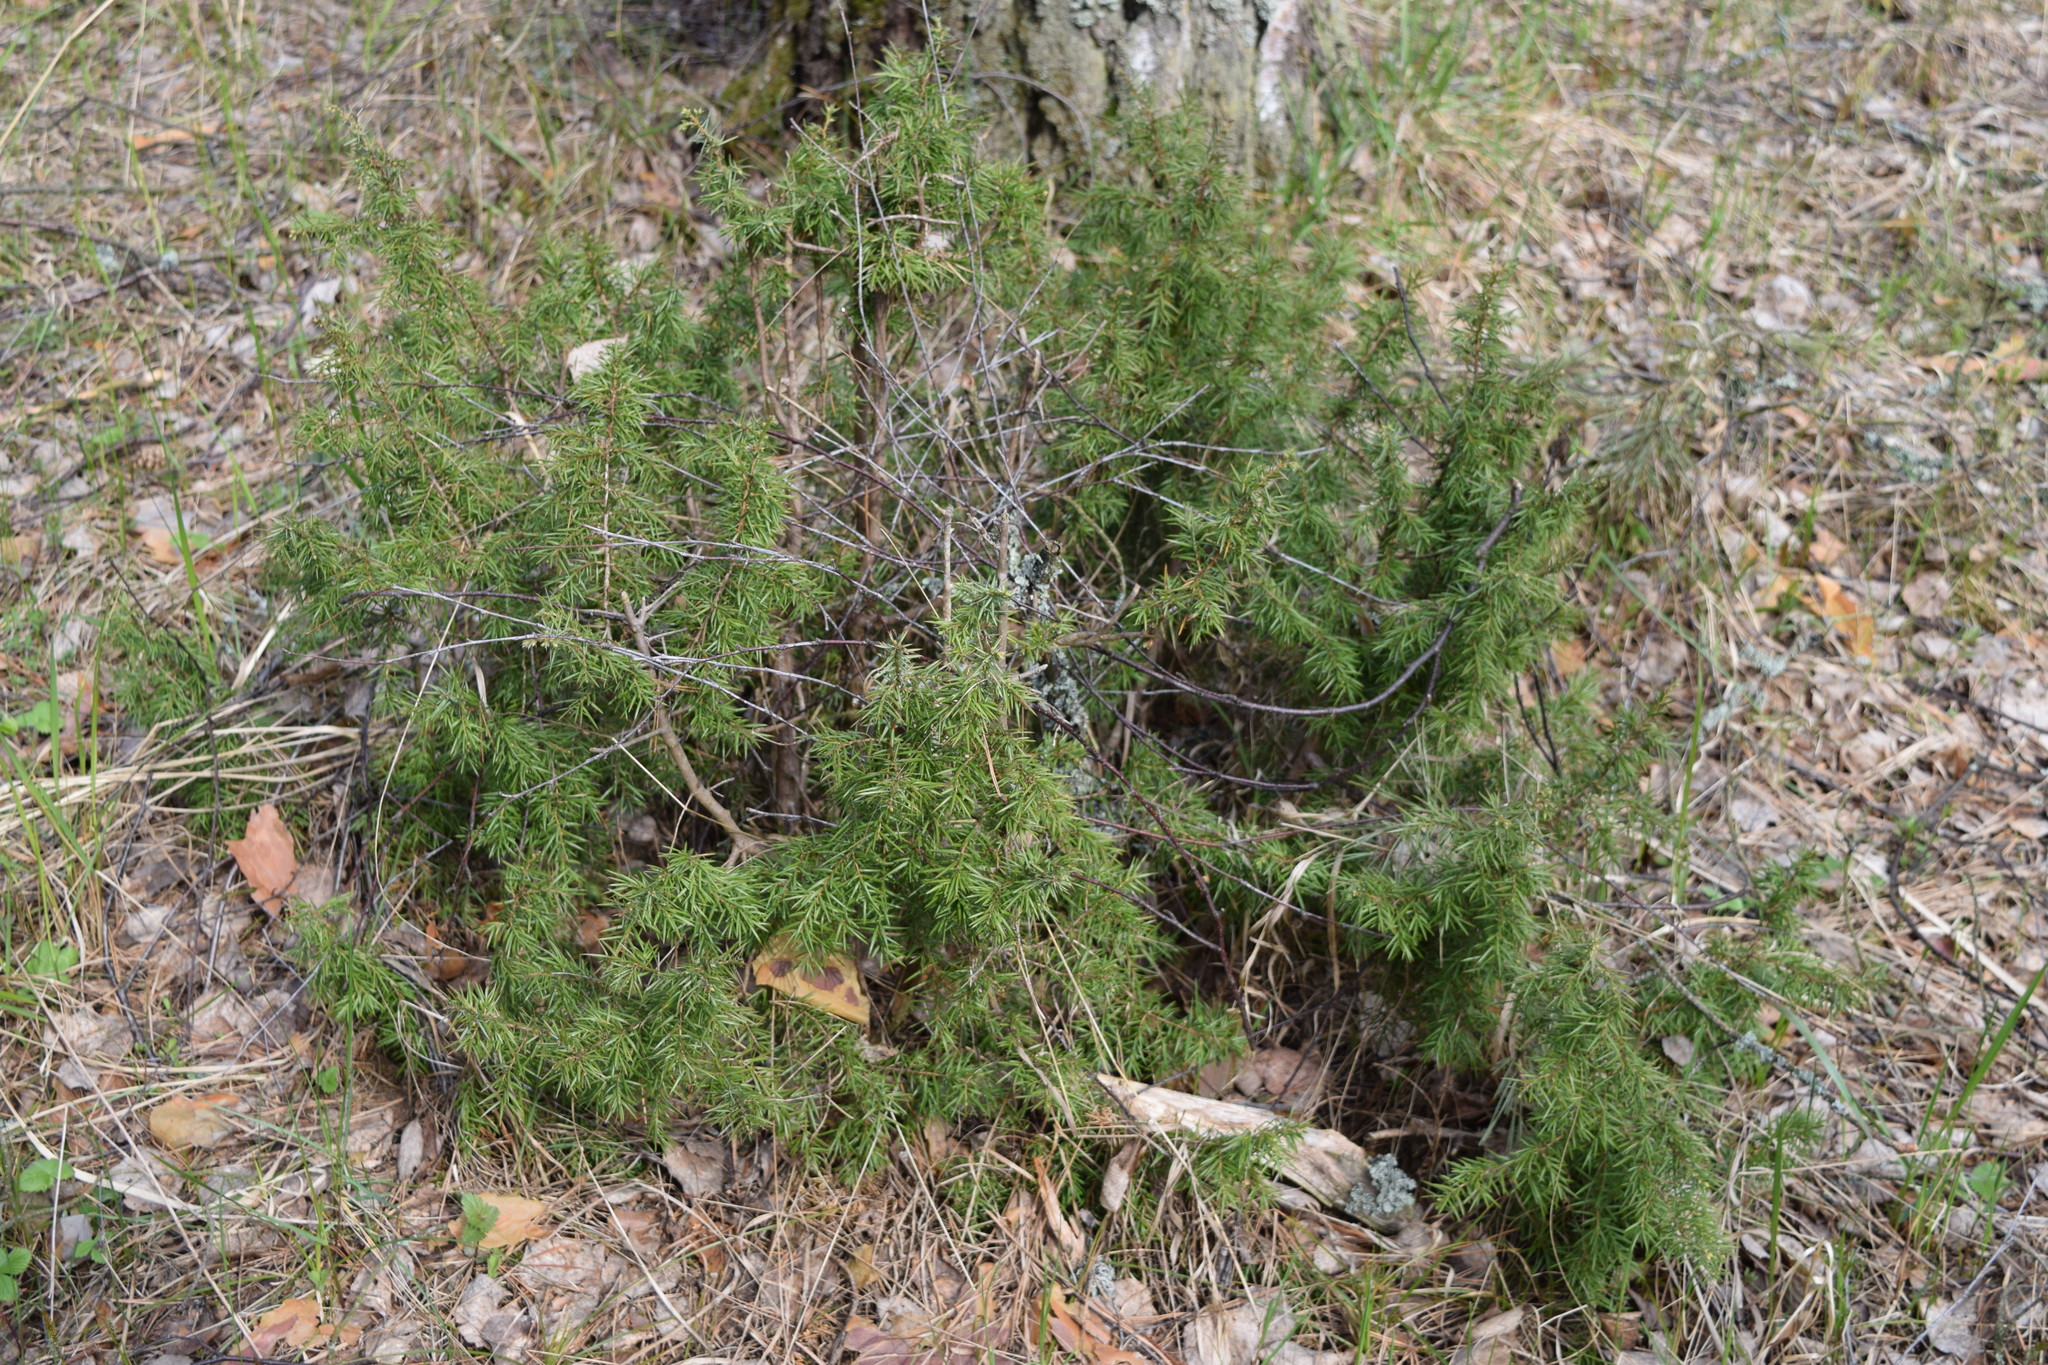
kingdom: Plantae
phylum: Tracheophyta
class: Pinopsida
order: Pinales
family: Cupressaceae
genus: Juniperus
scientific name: Juniperus communis
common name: Common juniper
